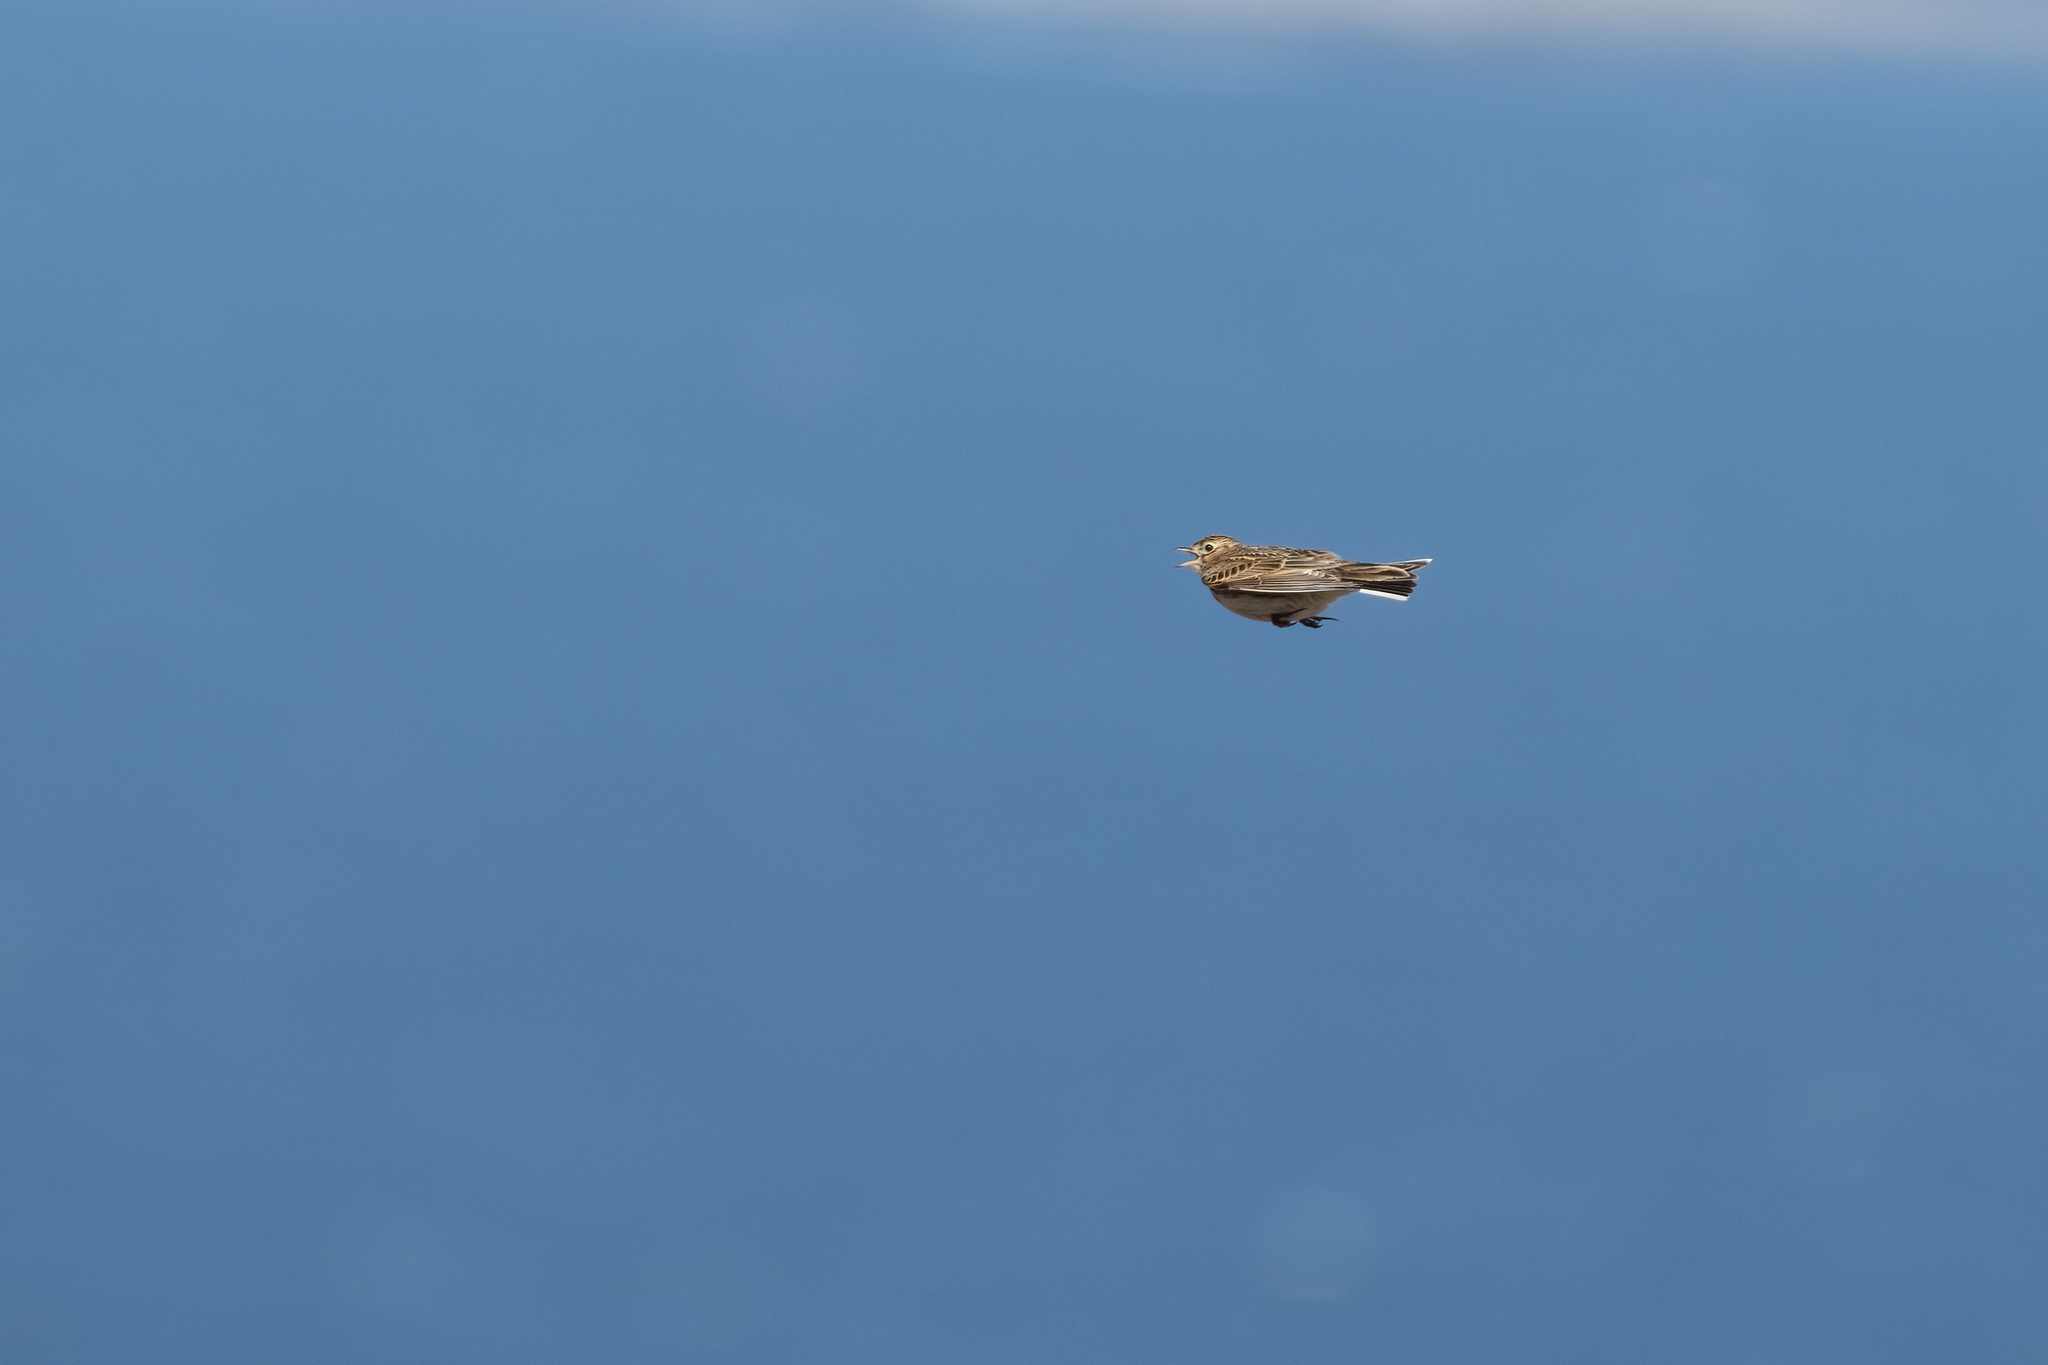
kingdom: Animalia
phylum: Chordata
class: Aves
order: Passeriformes
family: Alaudidae
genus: Alauda
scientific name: Alauda arvensis
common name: Eurasian skylark
